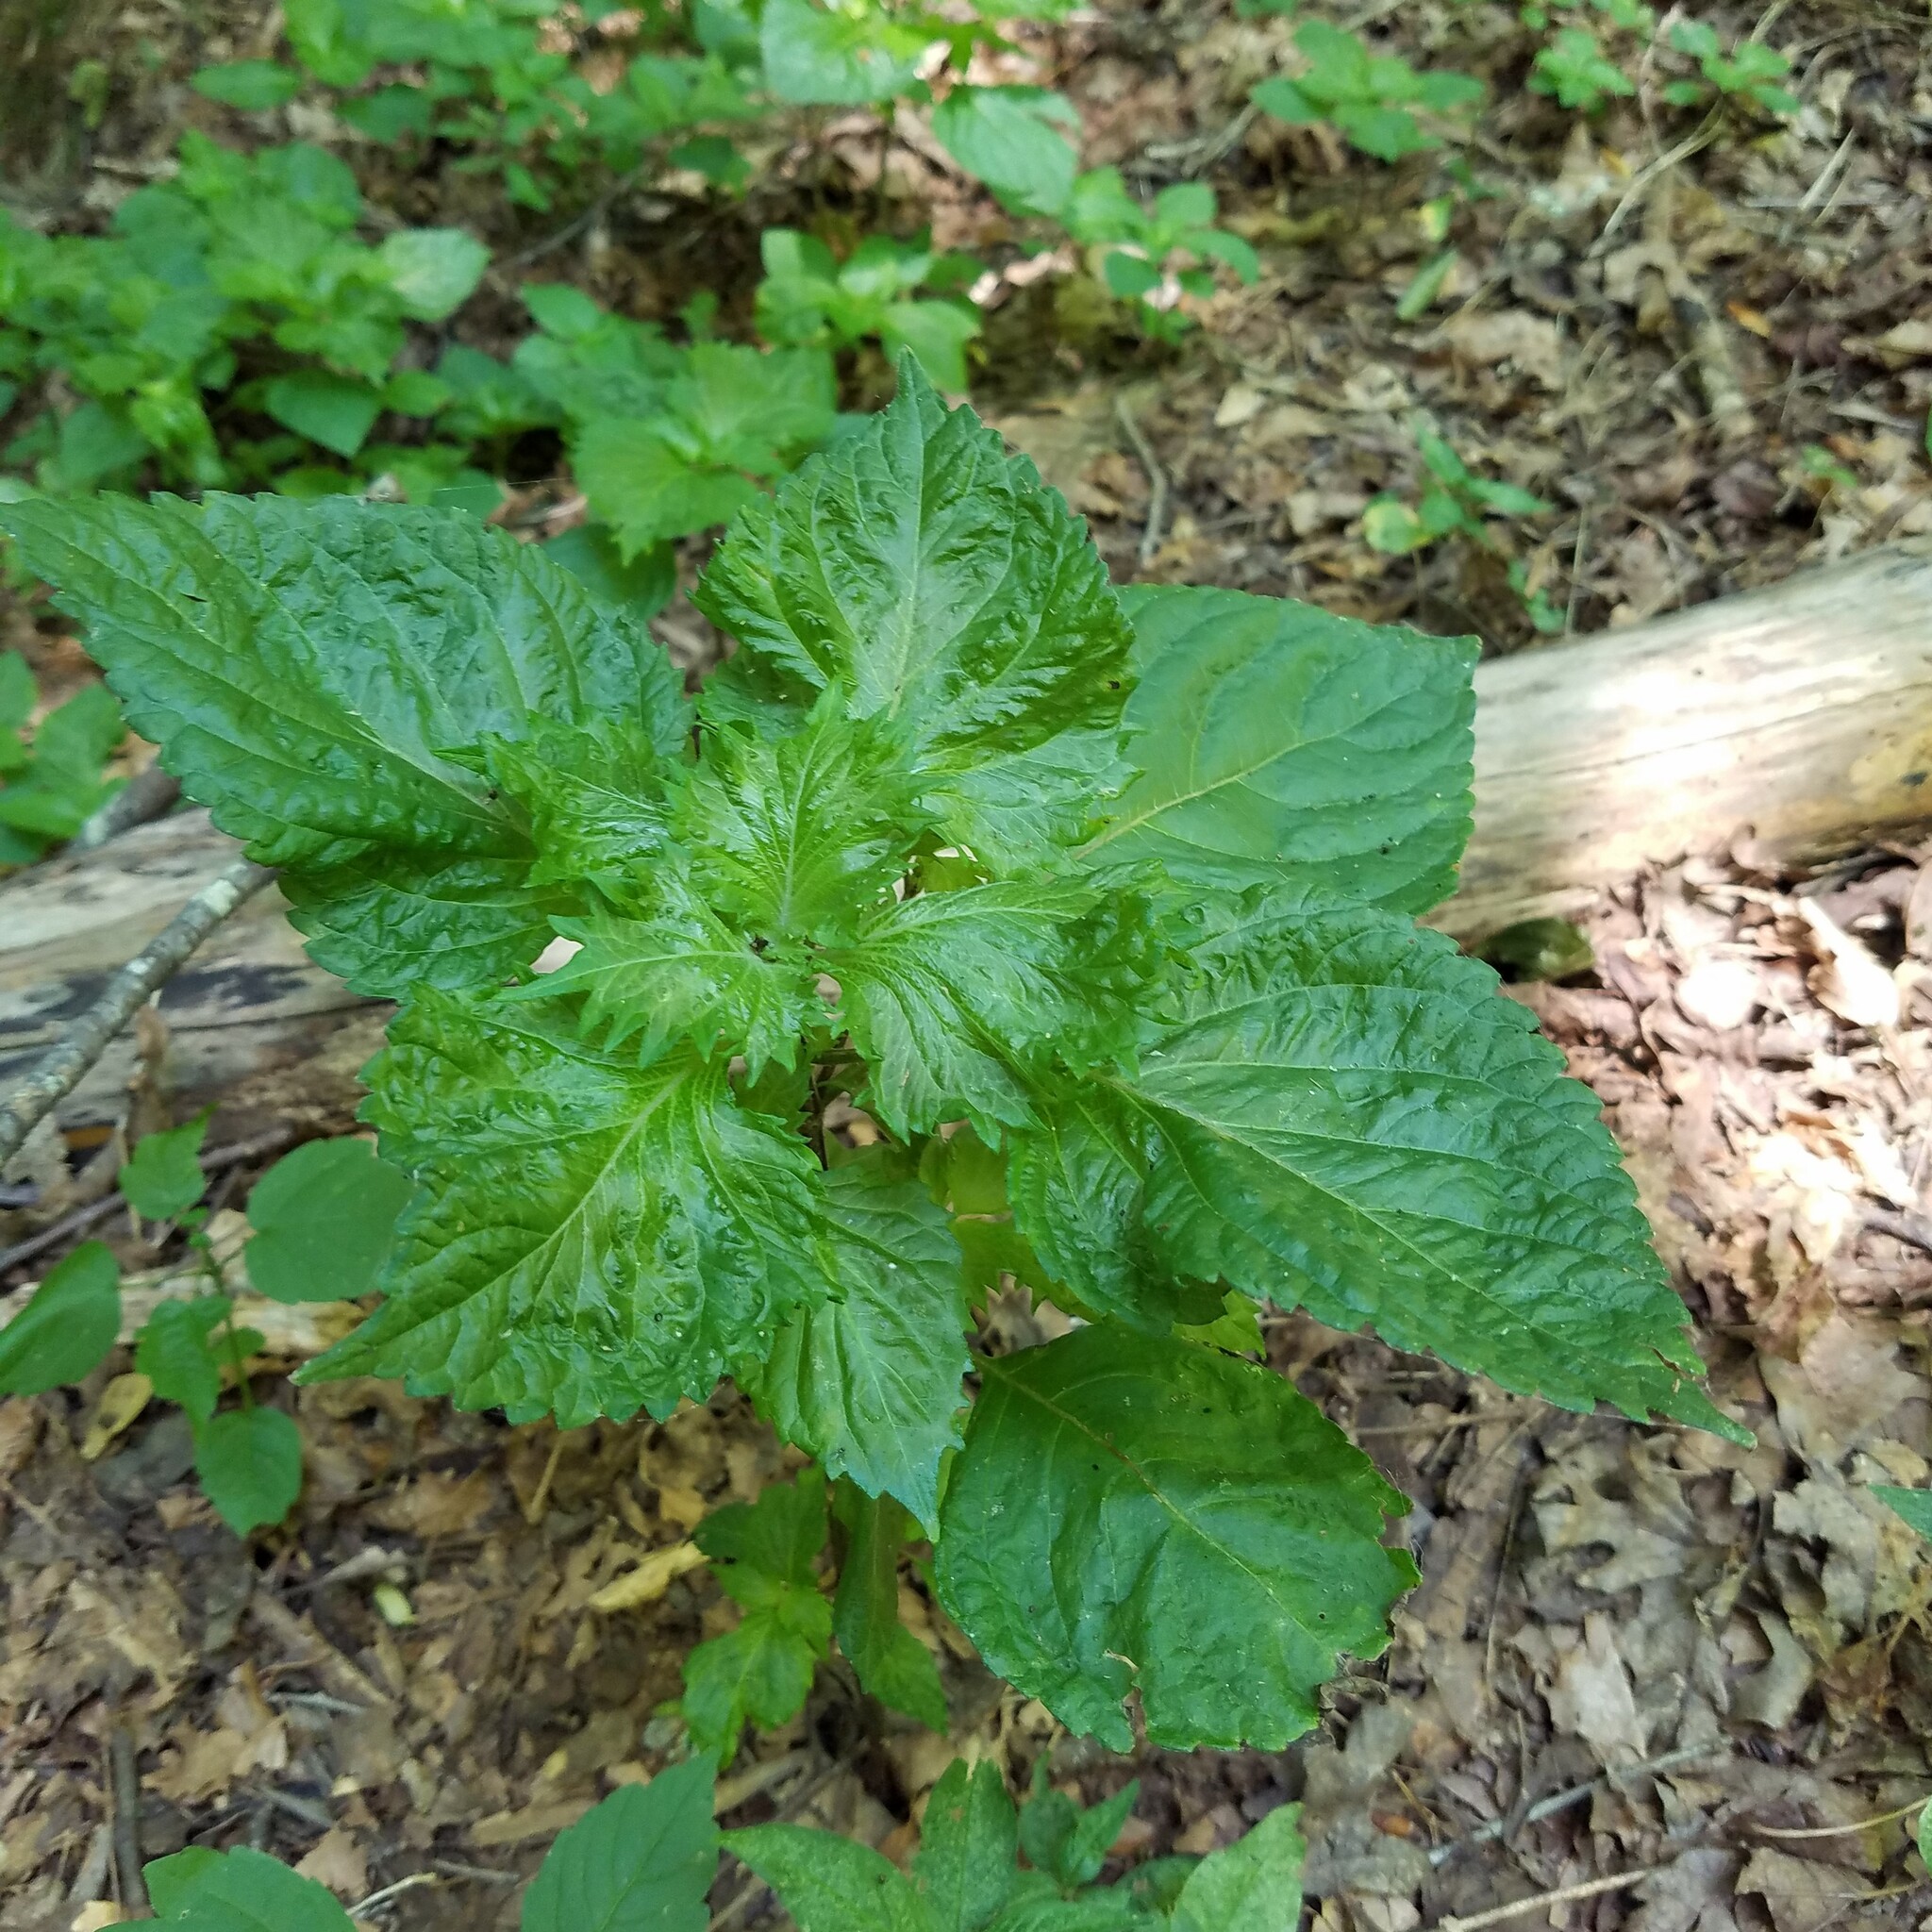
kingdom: Plantae
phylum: Tracheophyta
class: Magnoliopsida
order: Lamiales
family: Lamiaceae
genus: Perilla
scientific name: Perilla frutescens
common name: Perilla
